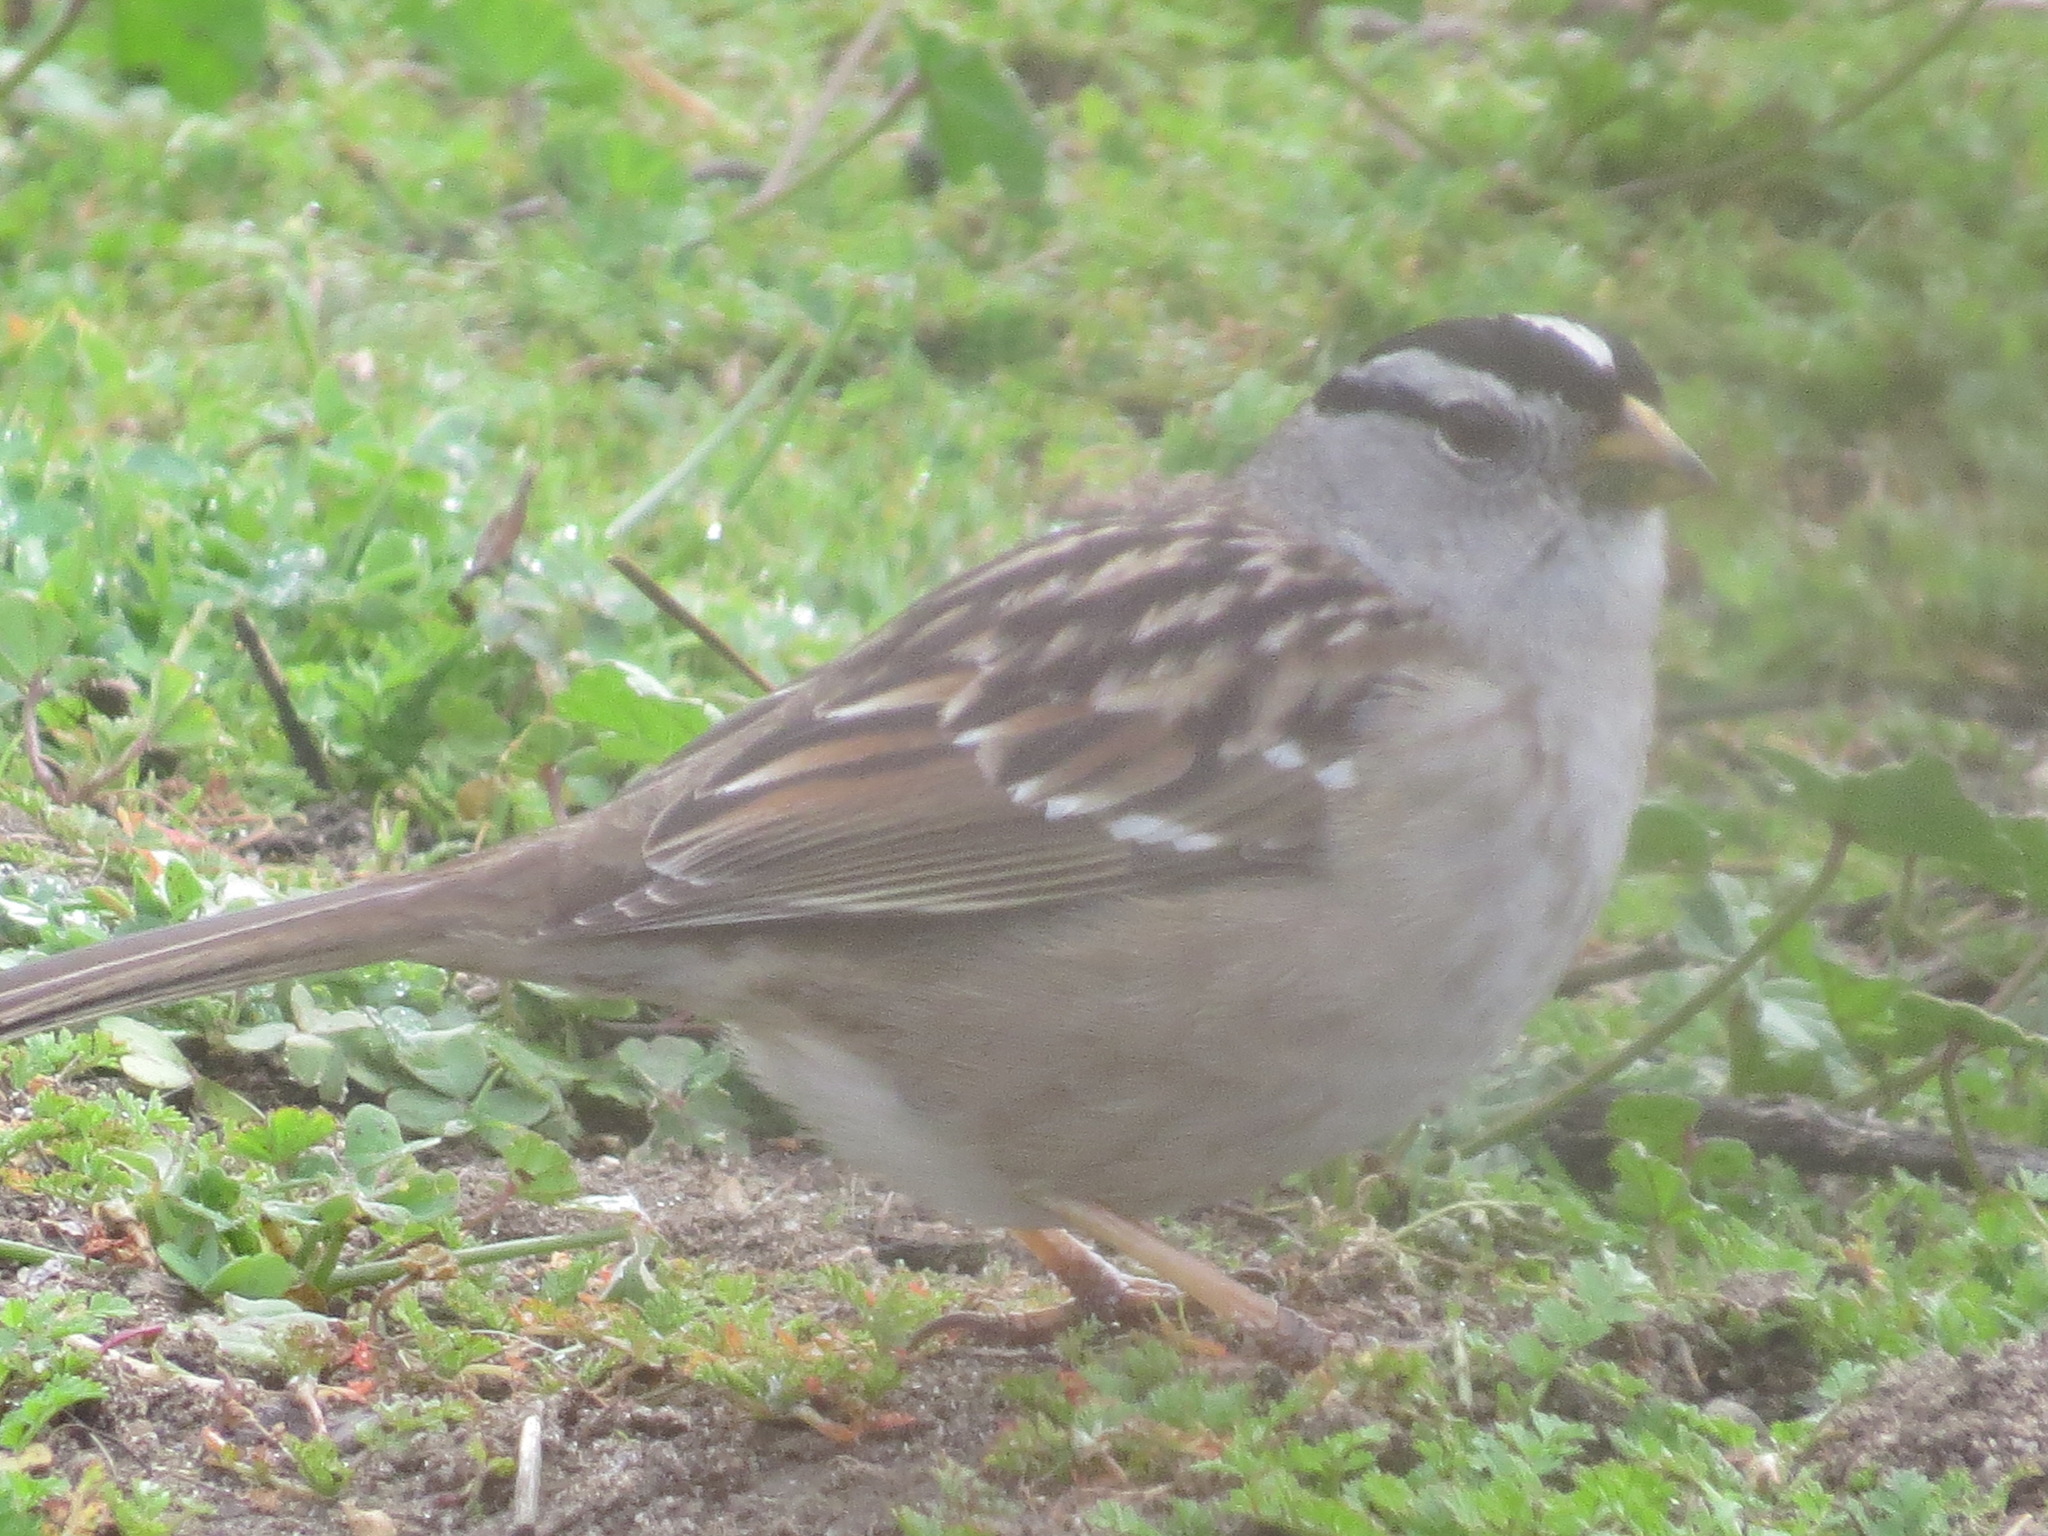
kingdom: Animalia
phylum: Chordata
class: Aves
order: Passeriformes
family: Passerellidae
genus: Zonotrichia
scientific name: Zonotrichia leucophrys
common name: White-crowned sparrow
